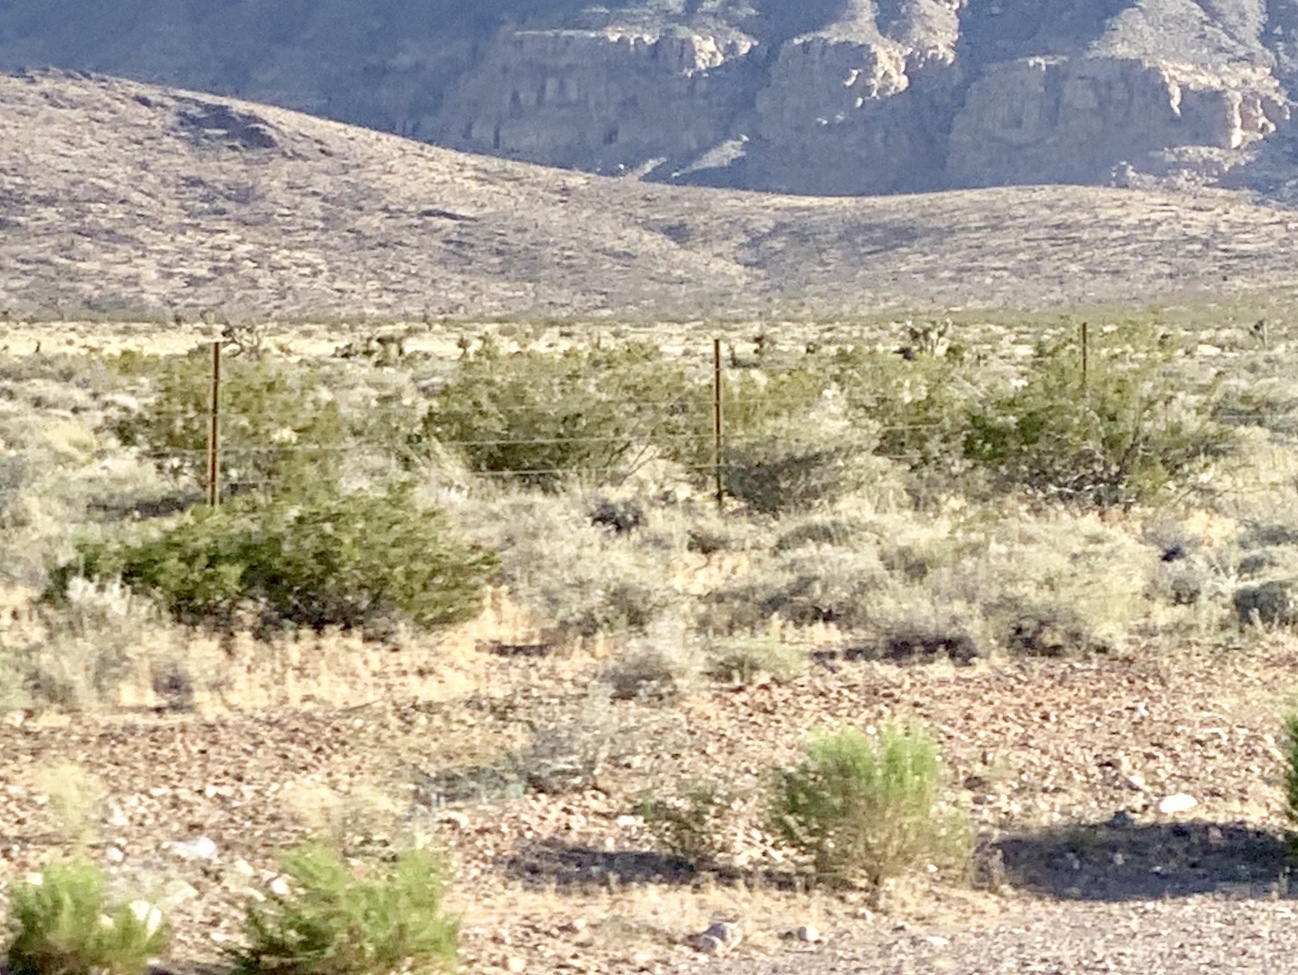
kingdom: Plantae
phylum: Tracheophyta
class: Magnoliopsida
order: Zygophyllales
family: Zygophyllaceae
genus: Larrea
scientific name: Larrea tridentata
